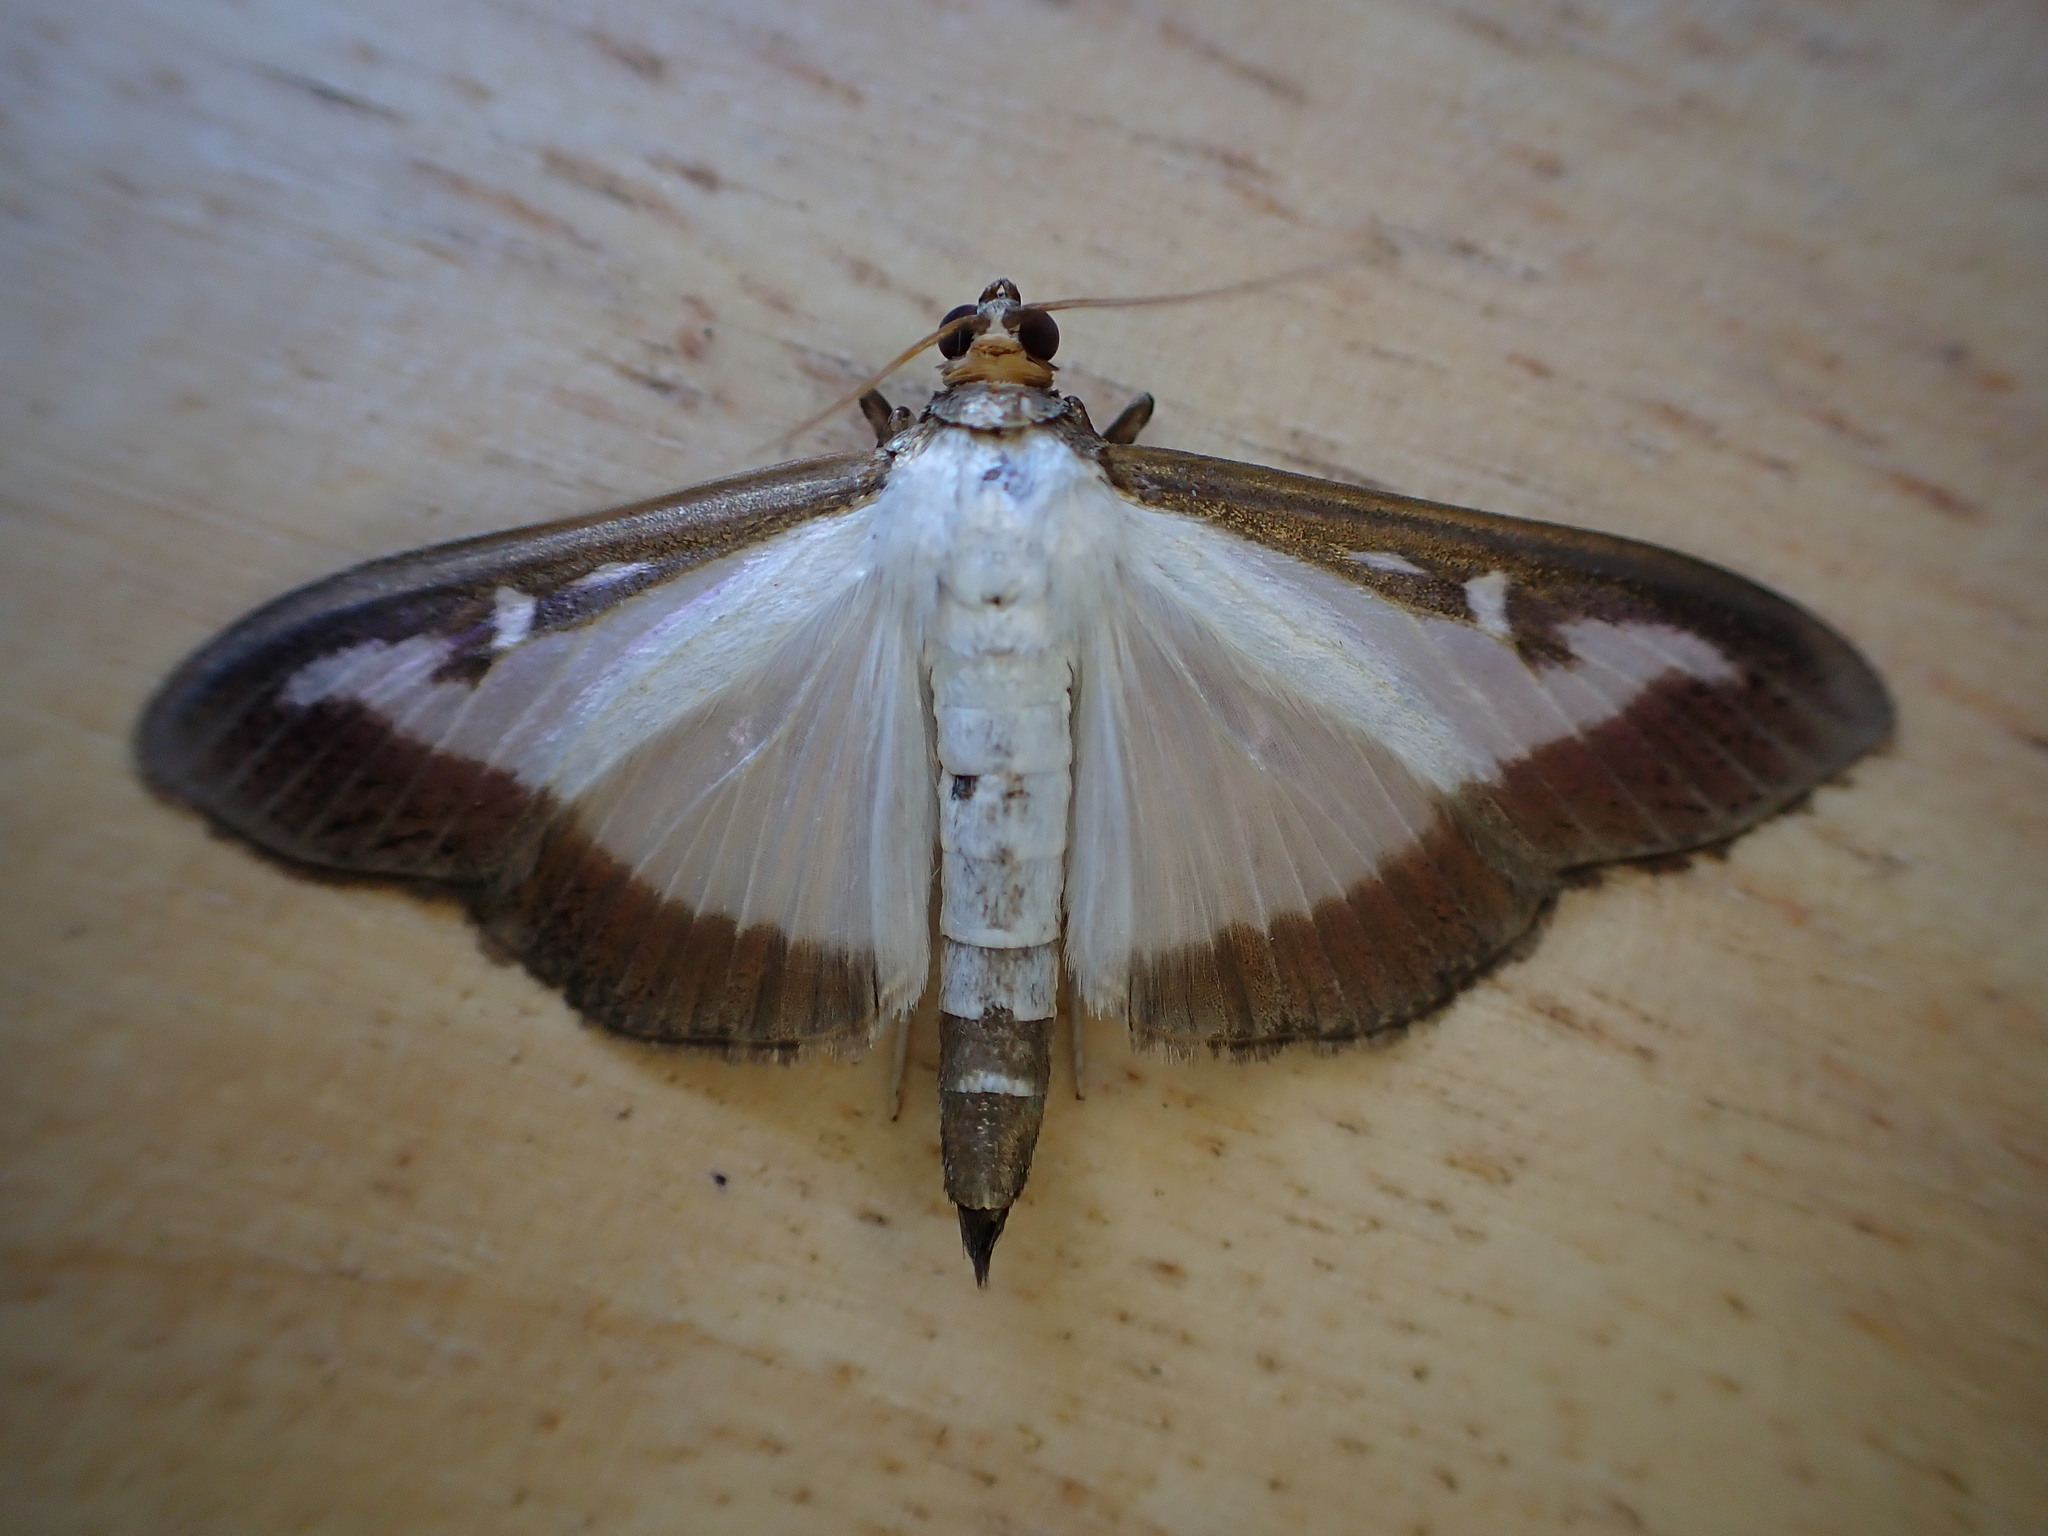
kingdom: Animalia
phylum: Arthropoda
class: Insecta
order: Lepidoptera
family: Crambidae
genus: Cydalima
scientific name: Cydalima perspectalis
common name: Box tree moth
